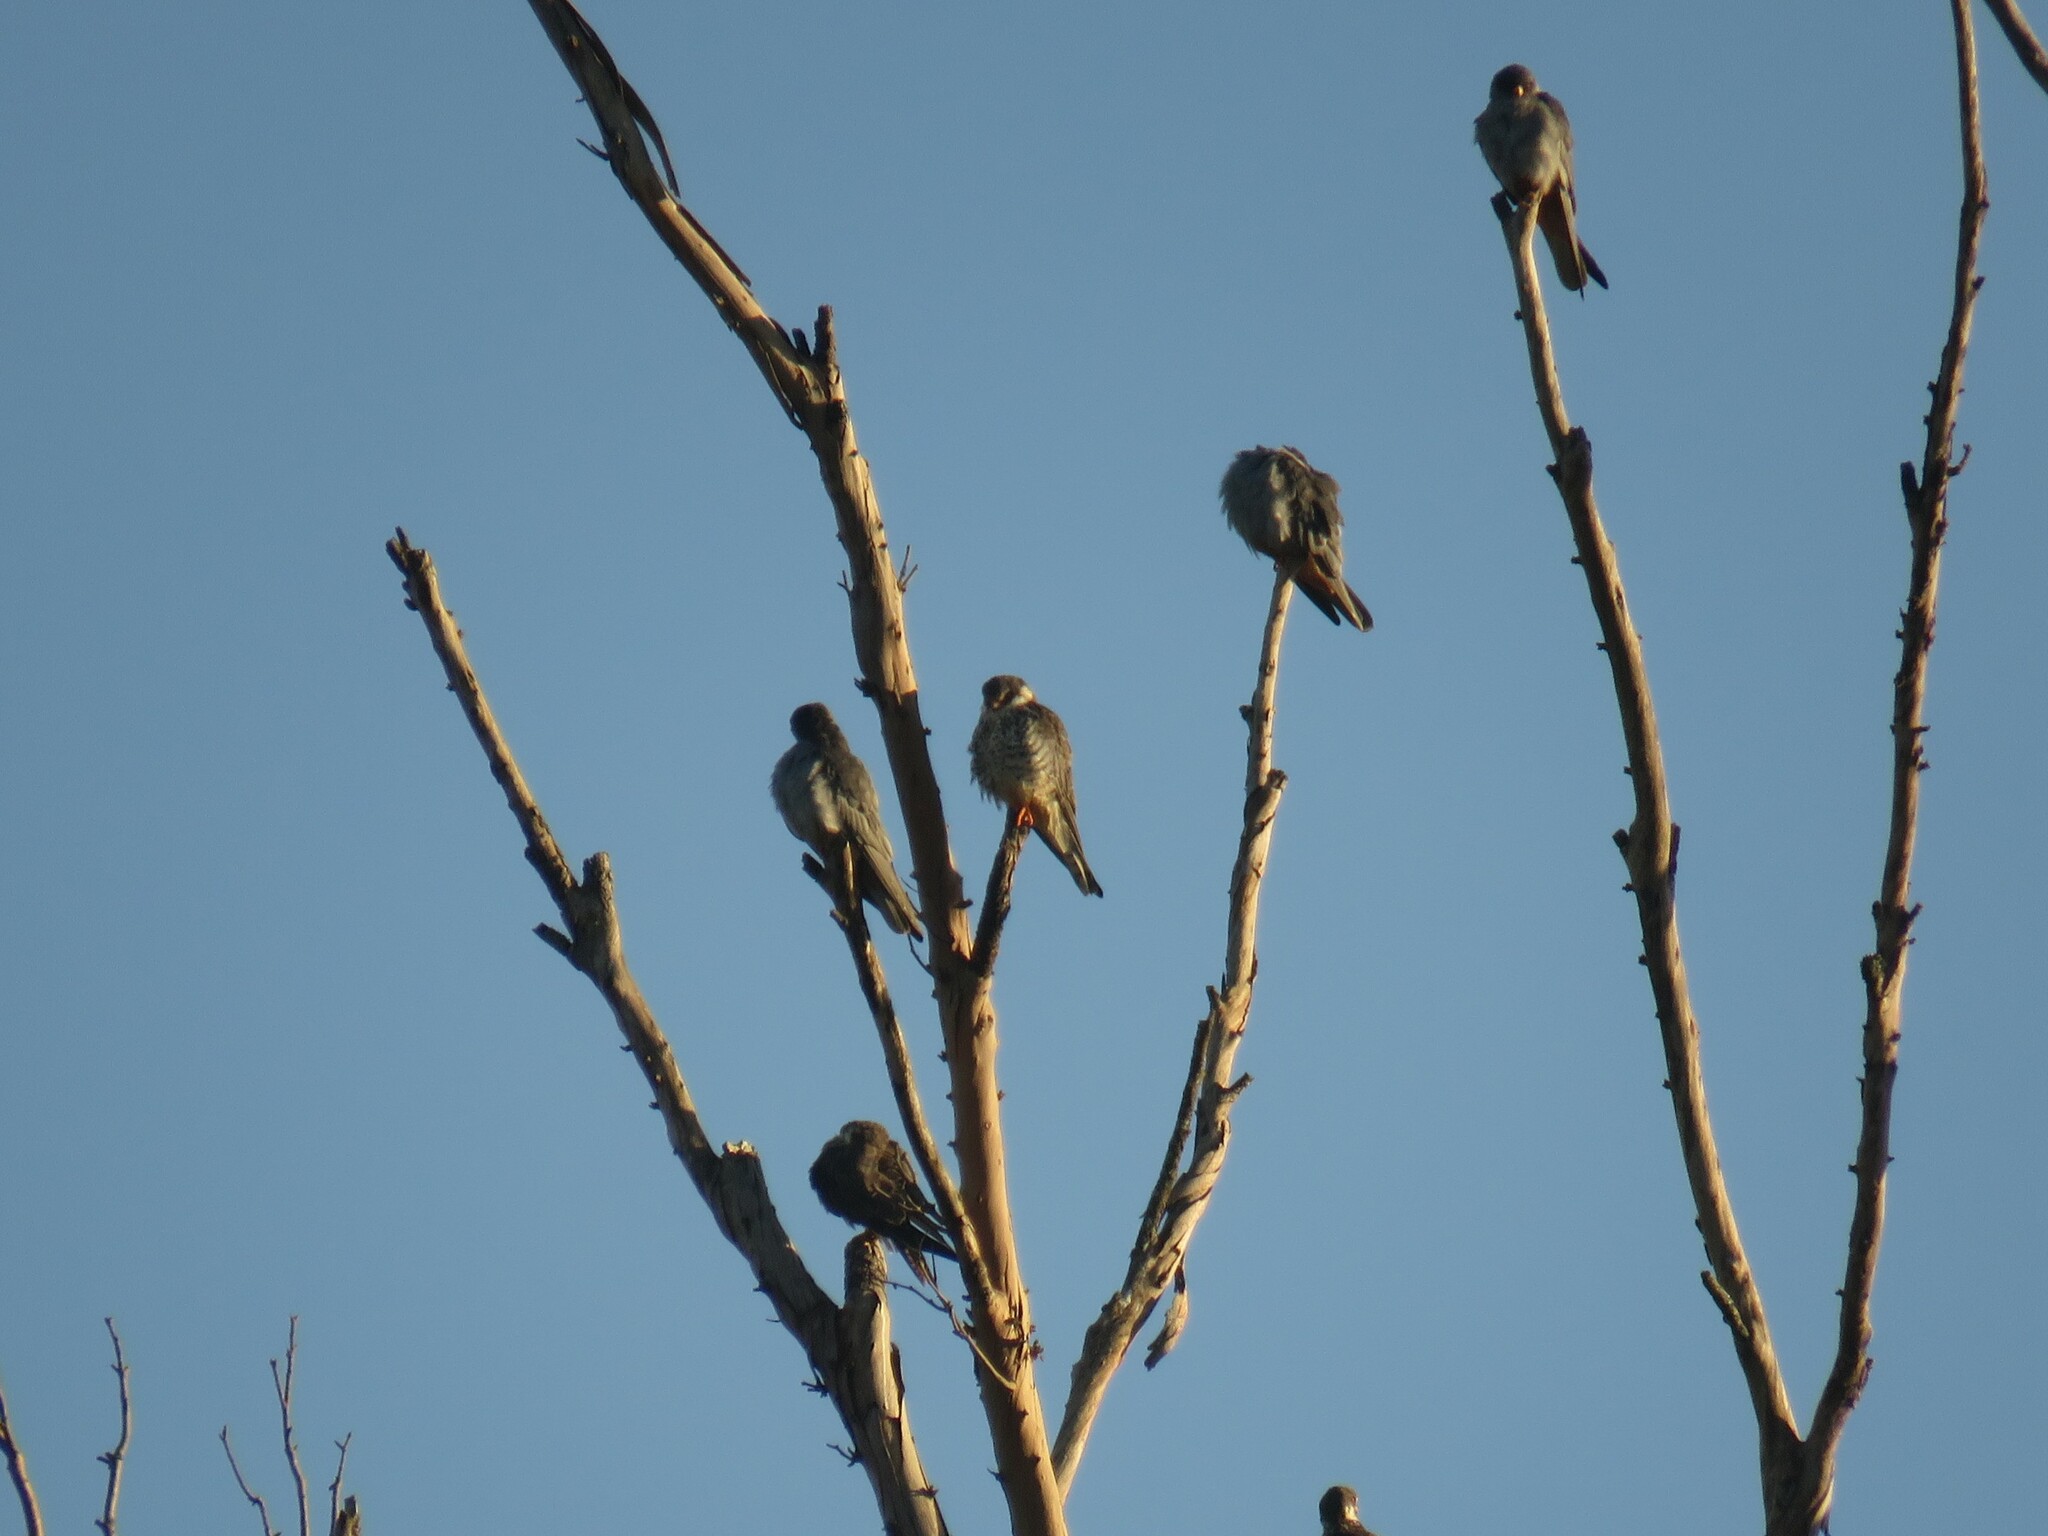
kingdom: Animalia
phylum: Chordata
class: Aves
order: Falconiformes
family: Falconidae
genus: Falco
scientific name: Falco amurensis
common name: Amur falcon
